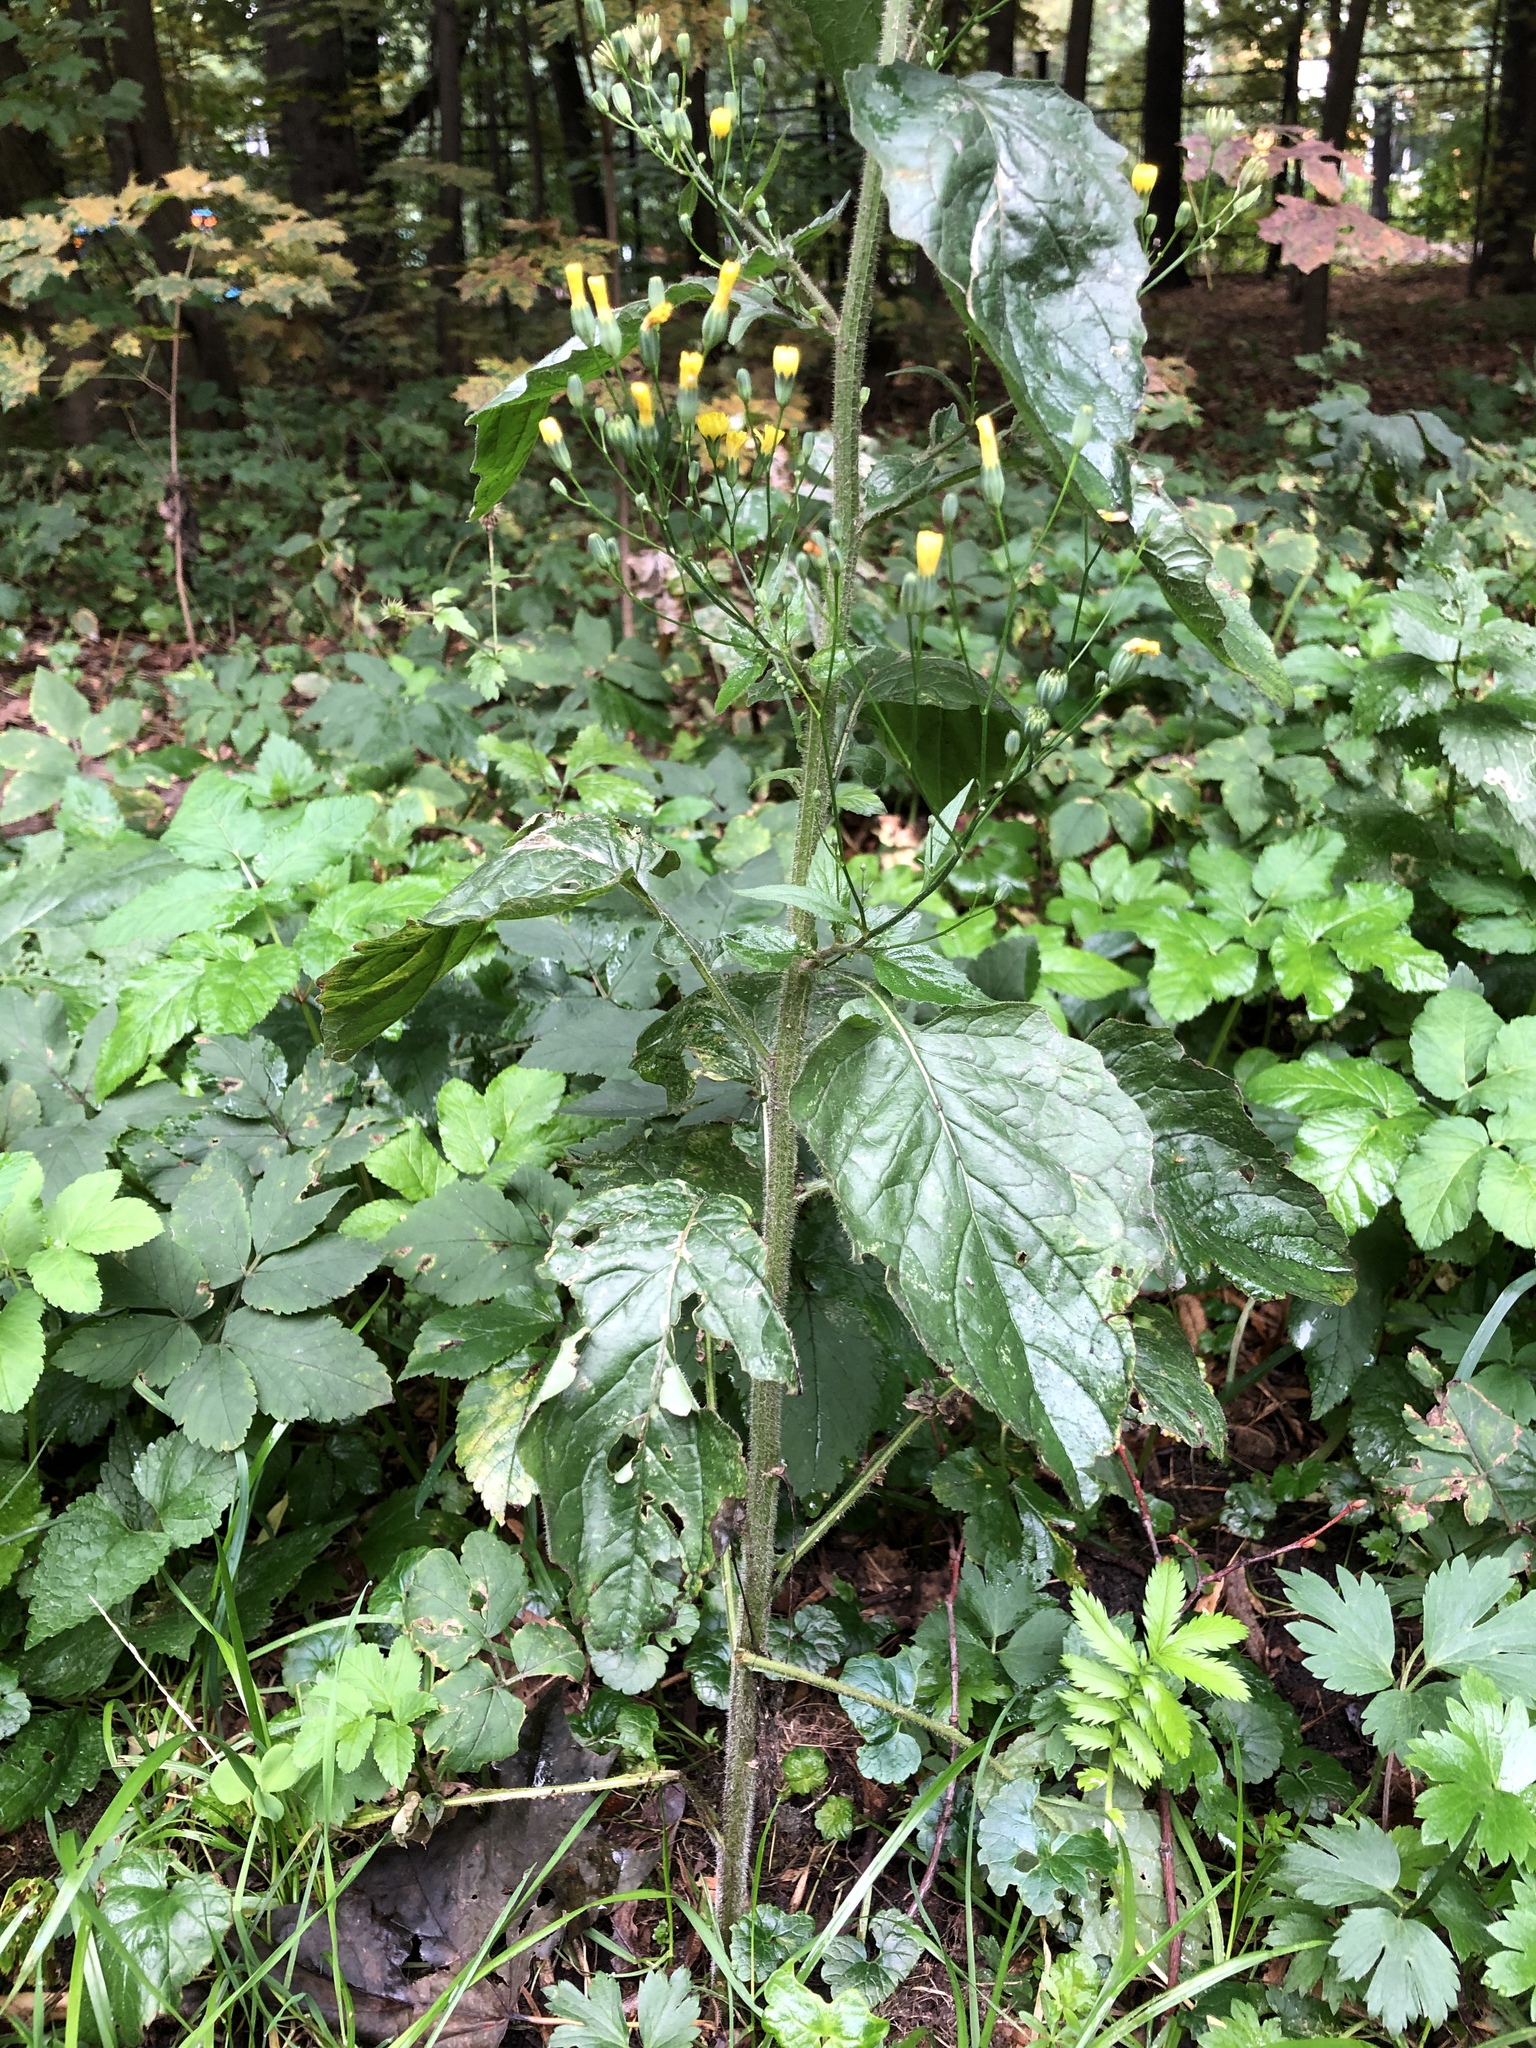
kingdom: Plantae
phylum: Tracheophyta
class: Magnoliopsida
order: Asterales
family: Asteraceae
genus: Lapsana
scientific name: Lapsana communis
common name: Nipplewort
